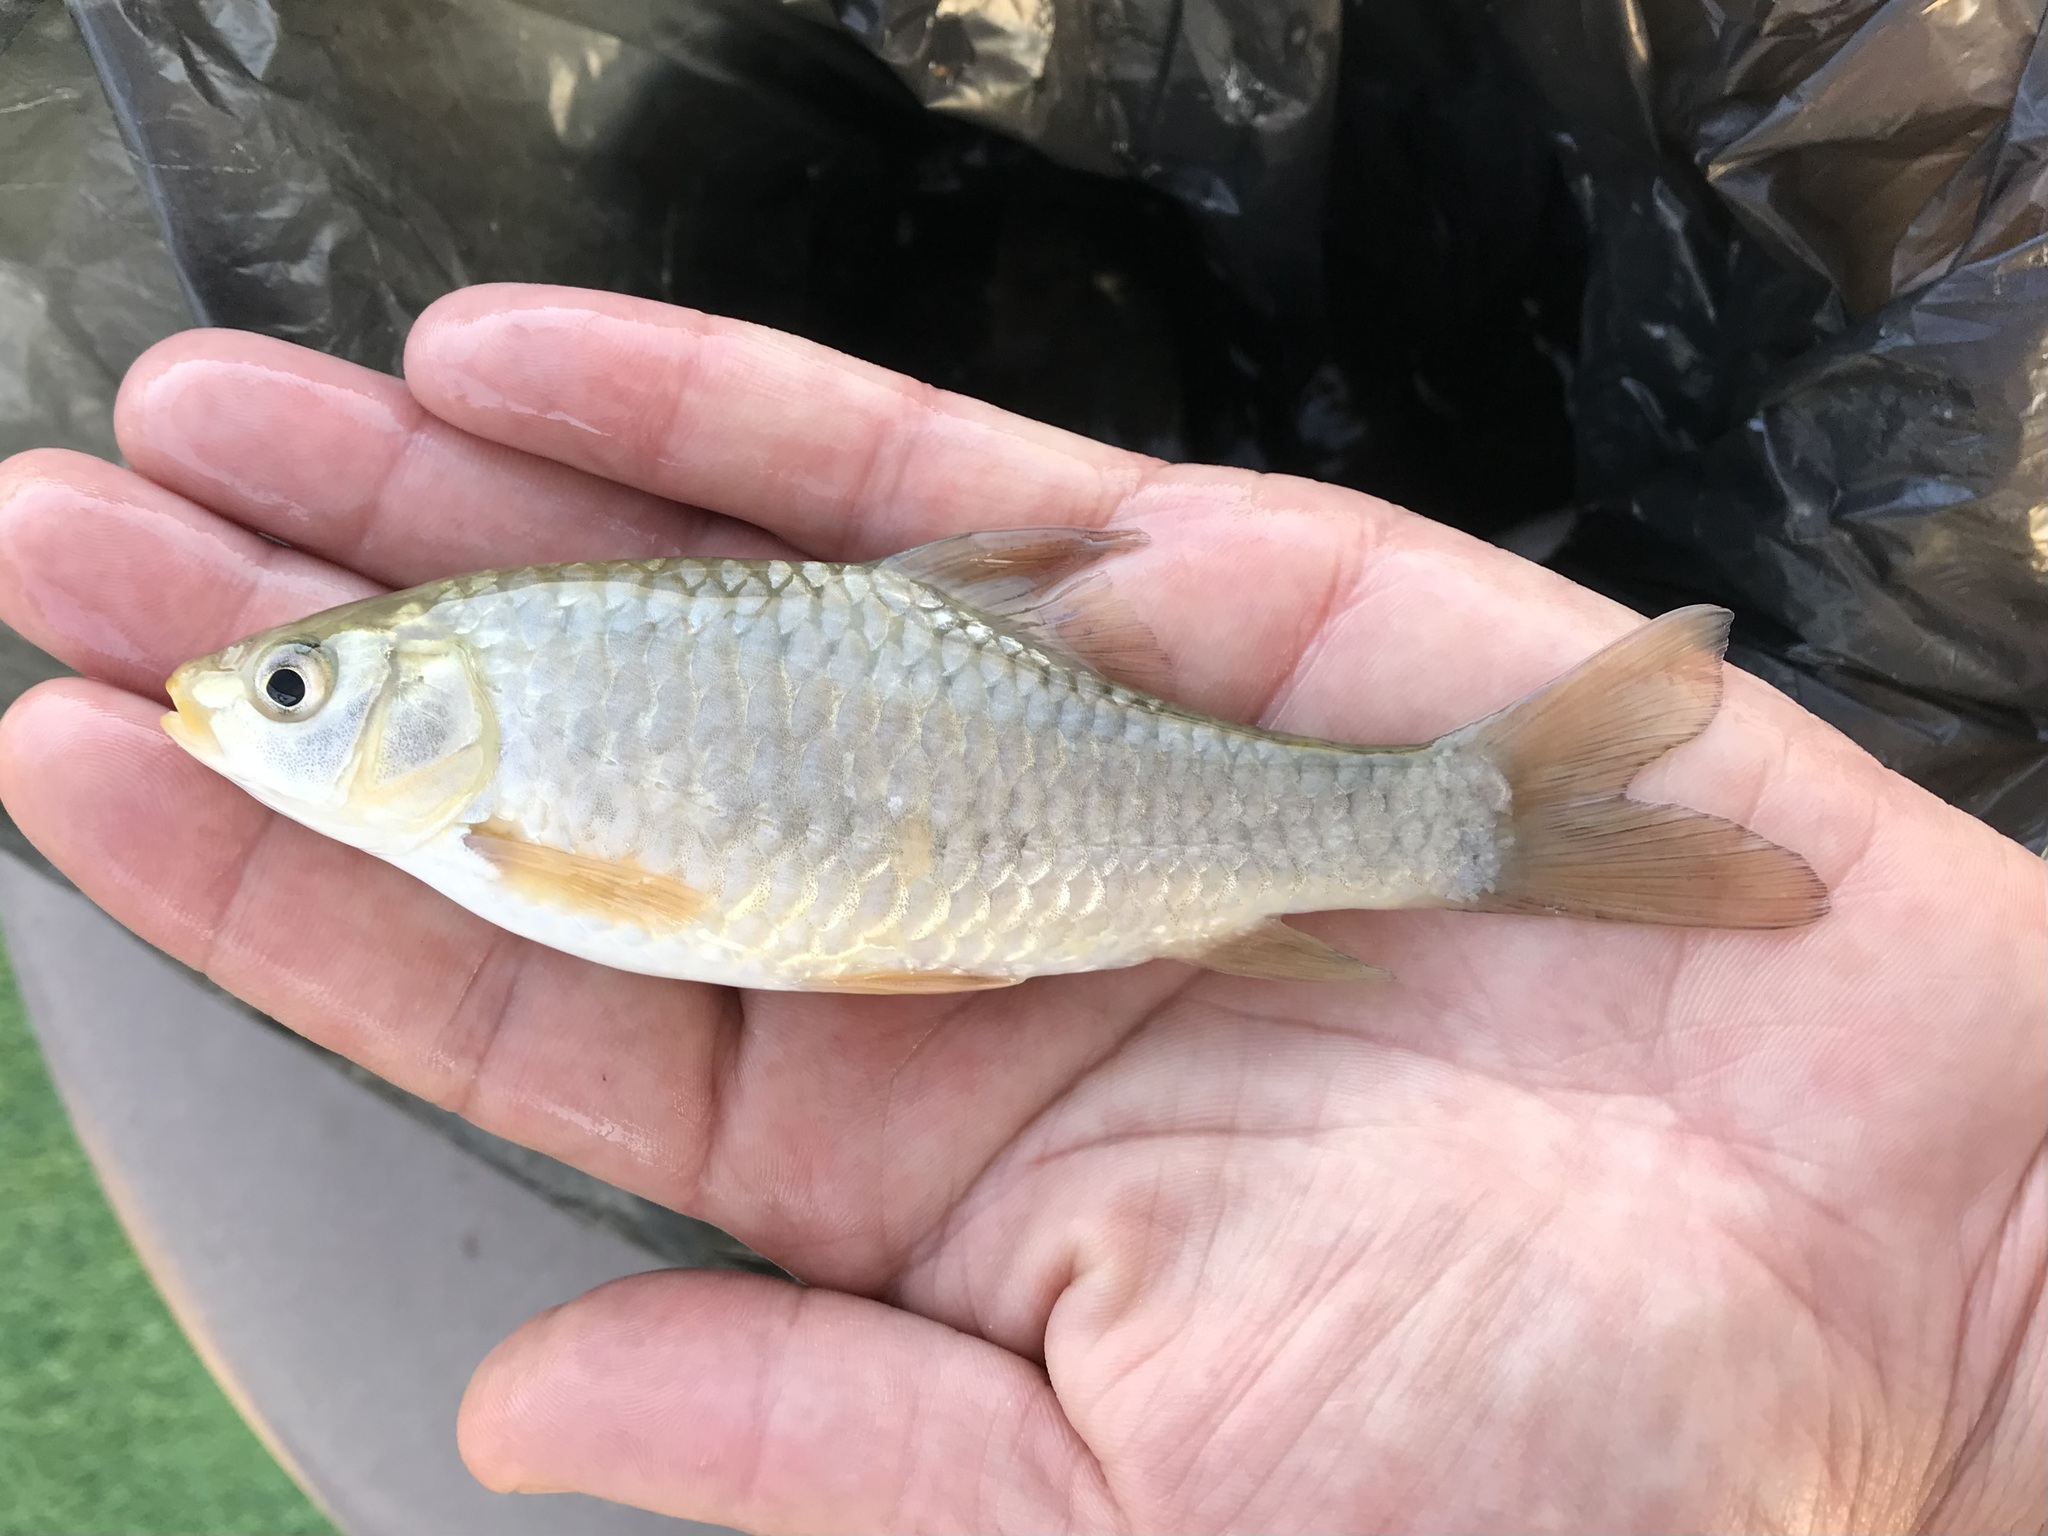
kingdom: Animalia
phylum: Chordata
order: Cypriniformes
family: Cyprinidae
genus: Carasobarbus
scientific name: Carasobarbus luteus
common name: Mesopotamian himri
